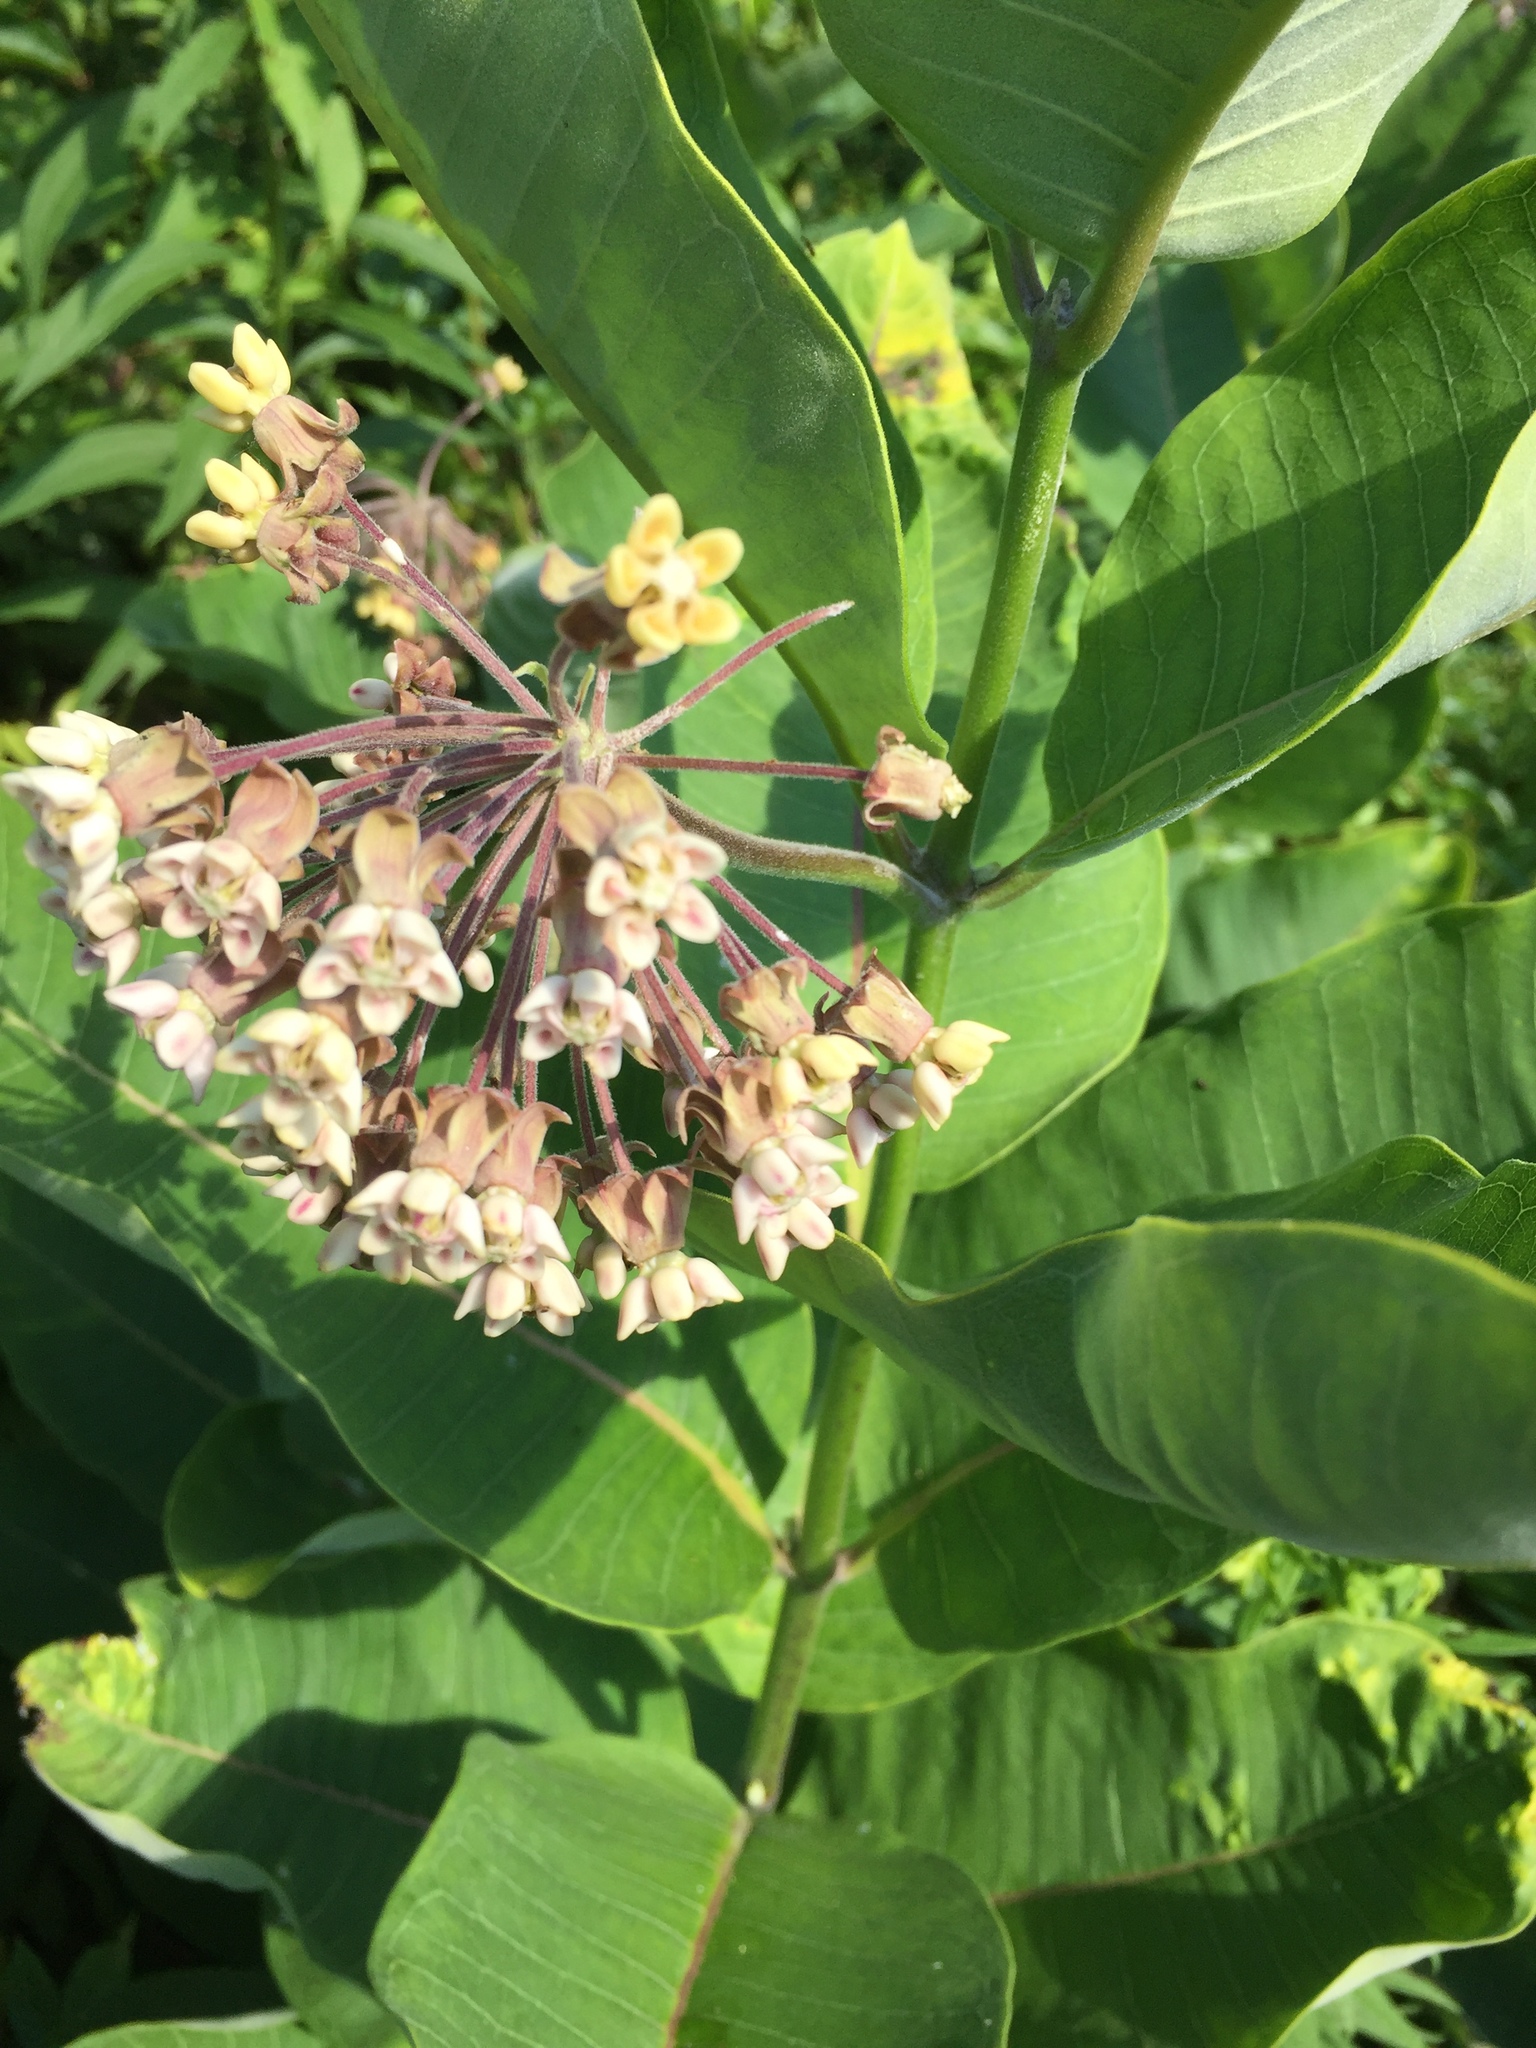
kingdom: Plantae
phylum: Tracheophyta
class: Magnoliopsida
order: Gentianales
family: Apocynaceae
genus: Asclepias
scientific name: Asclepias syriaca
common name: Common milkweed
